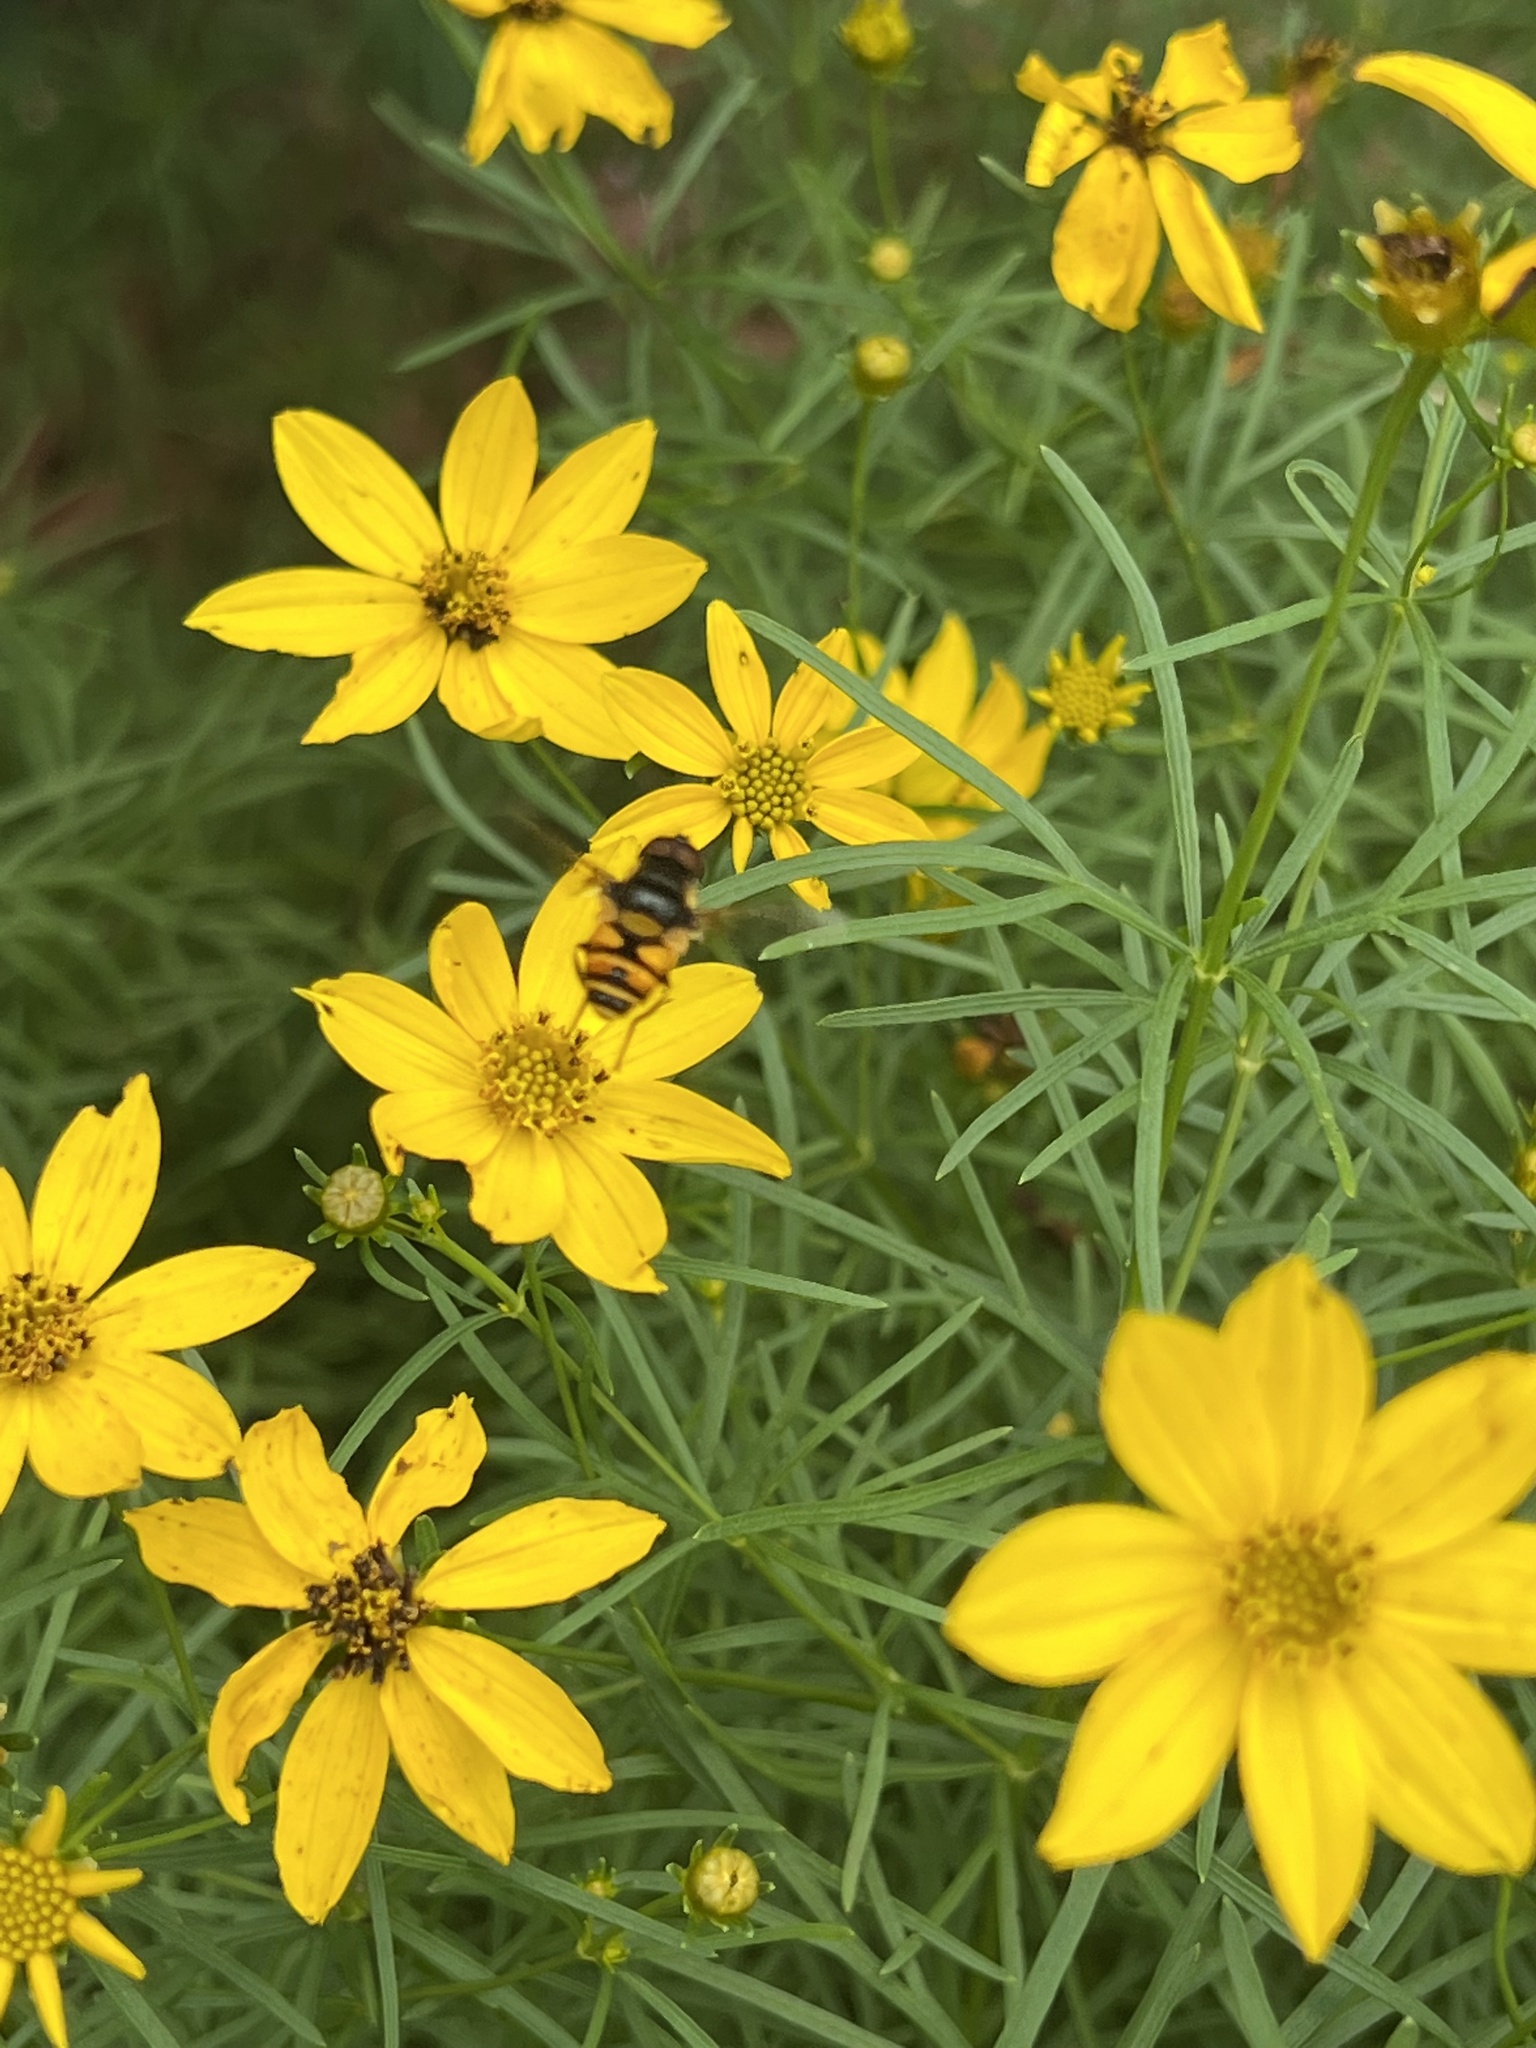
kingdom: Animalia
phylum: Arthropoda
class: Insecta
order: Diptera
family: Syrphidae
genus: Eristalis
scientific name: Eristalis transversa
